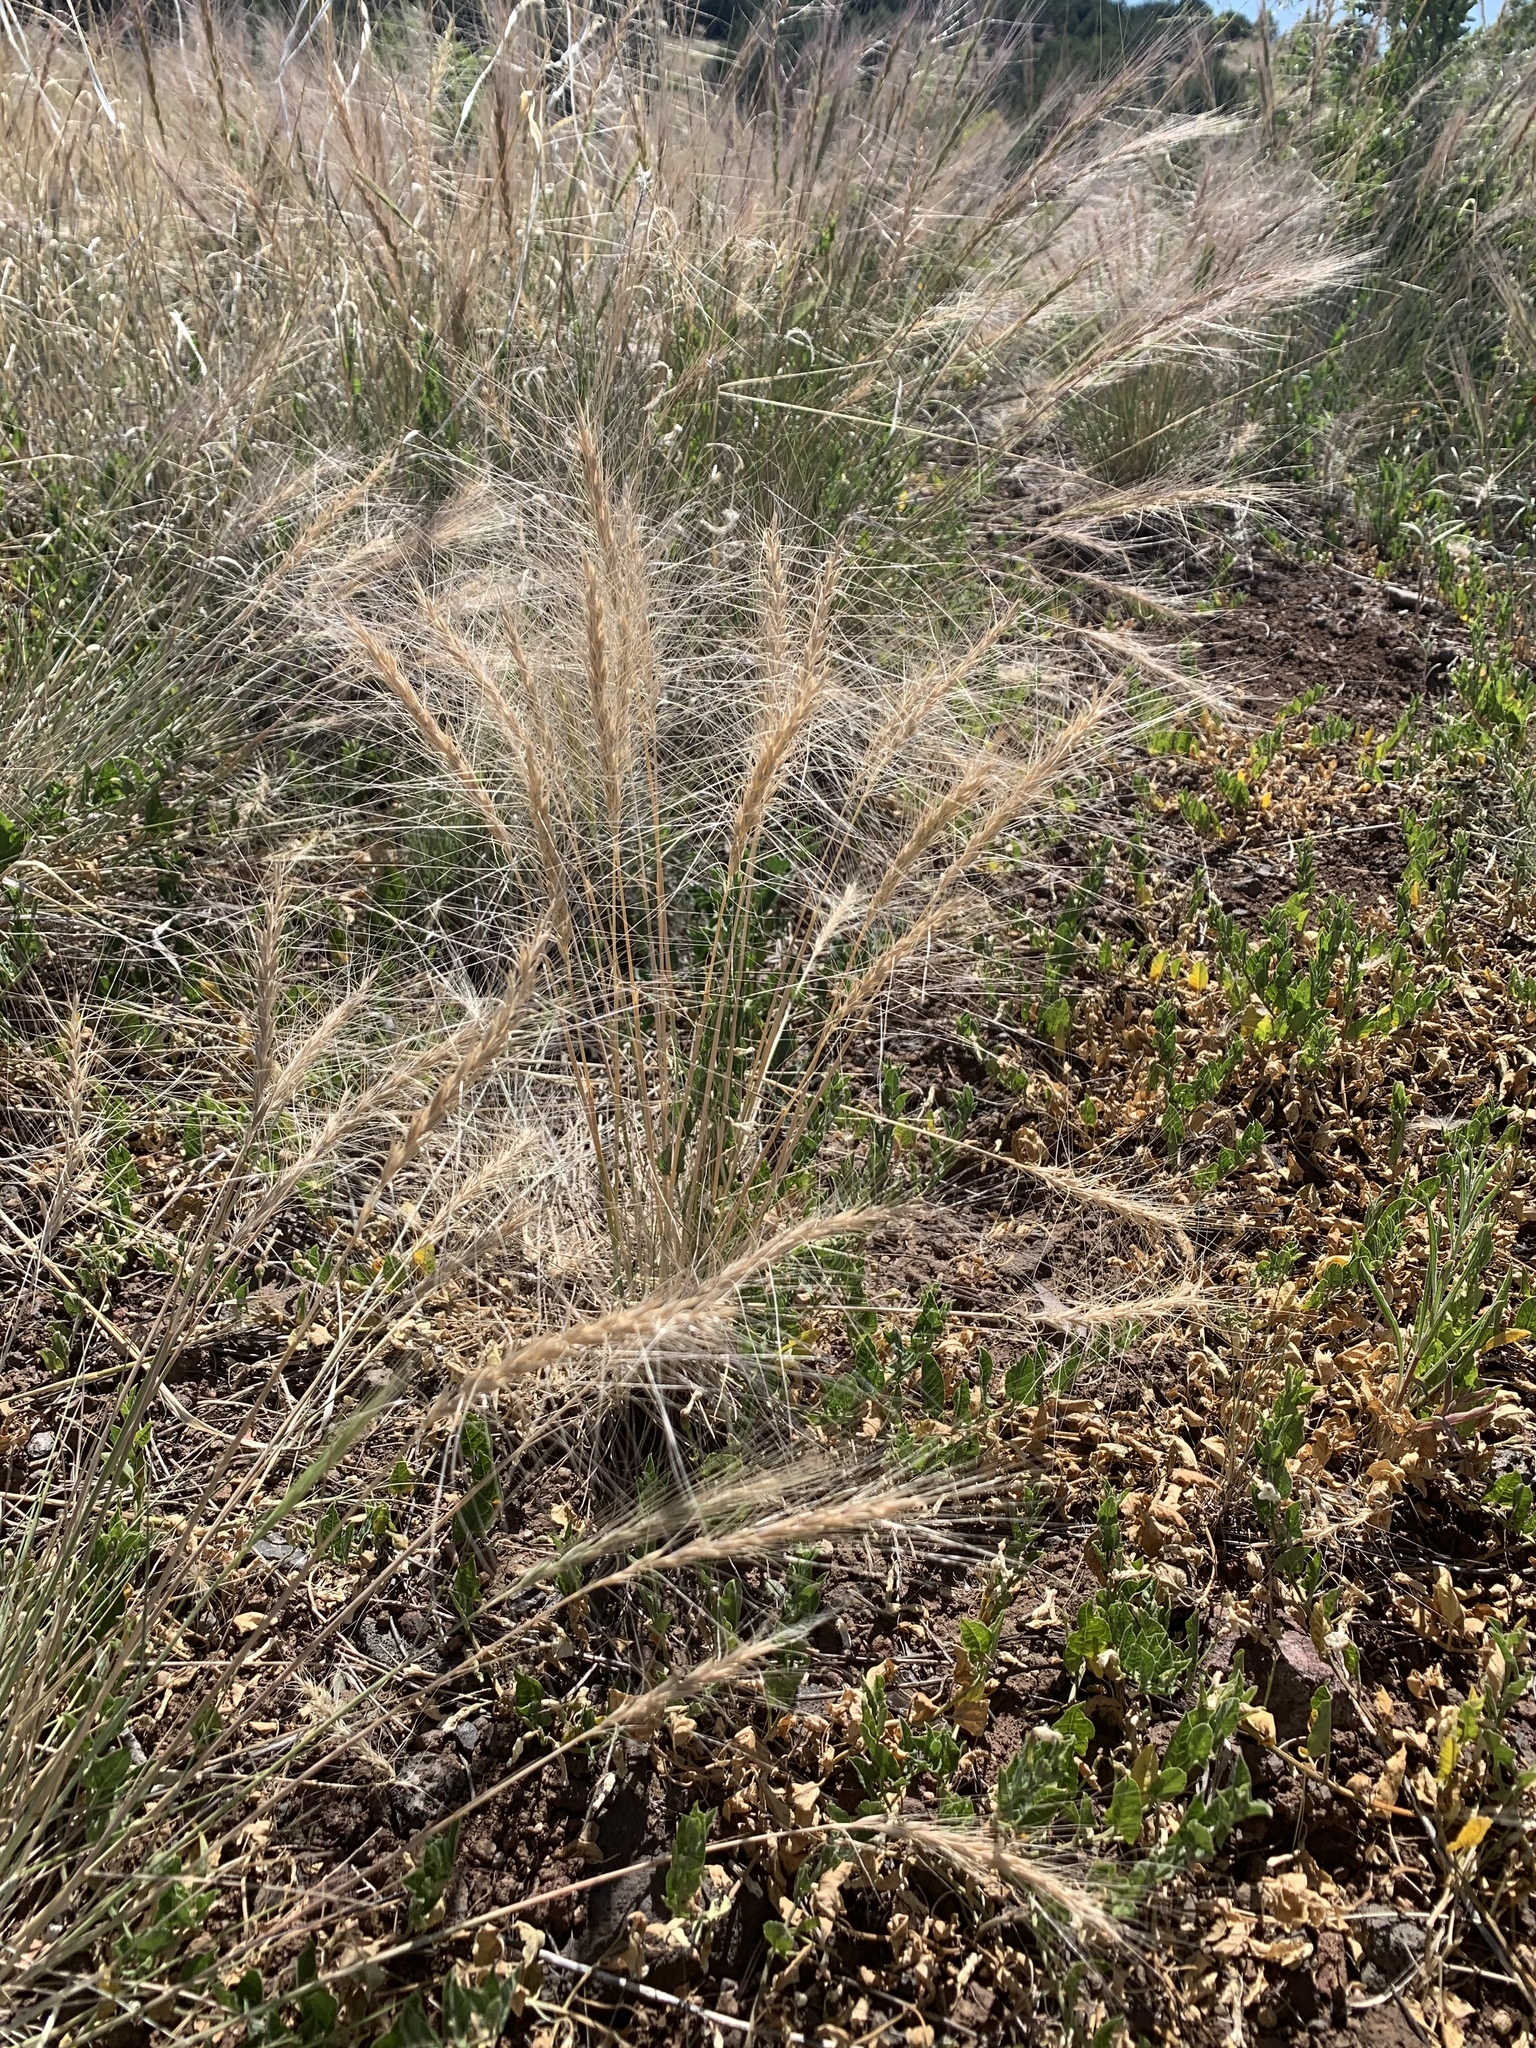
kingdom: Plantae
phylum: Tracheophyta
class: Liliopsida
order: Poales
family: Poaceae
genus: Elymus
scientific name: Elymus elymoides
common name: Bottlebrush squirreltail
